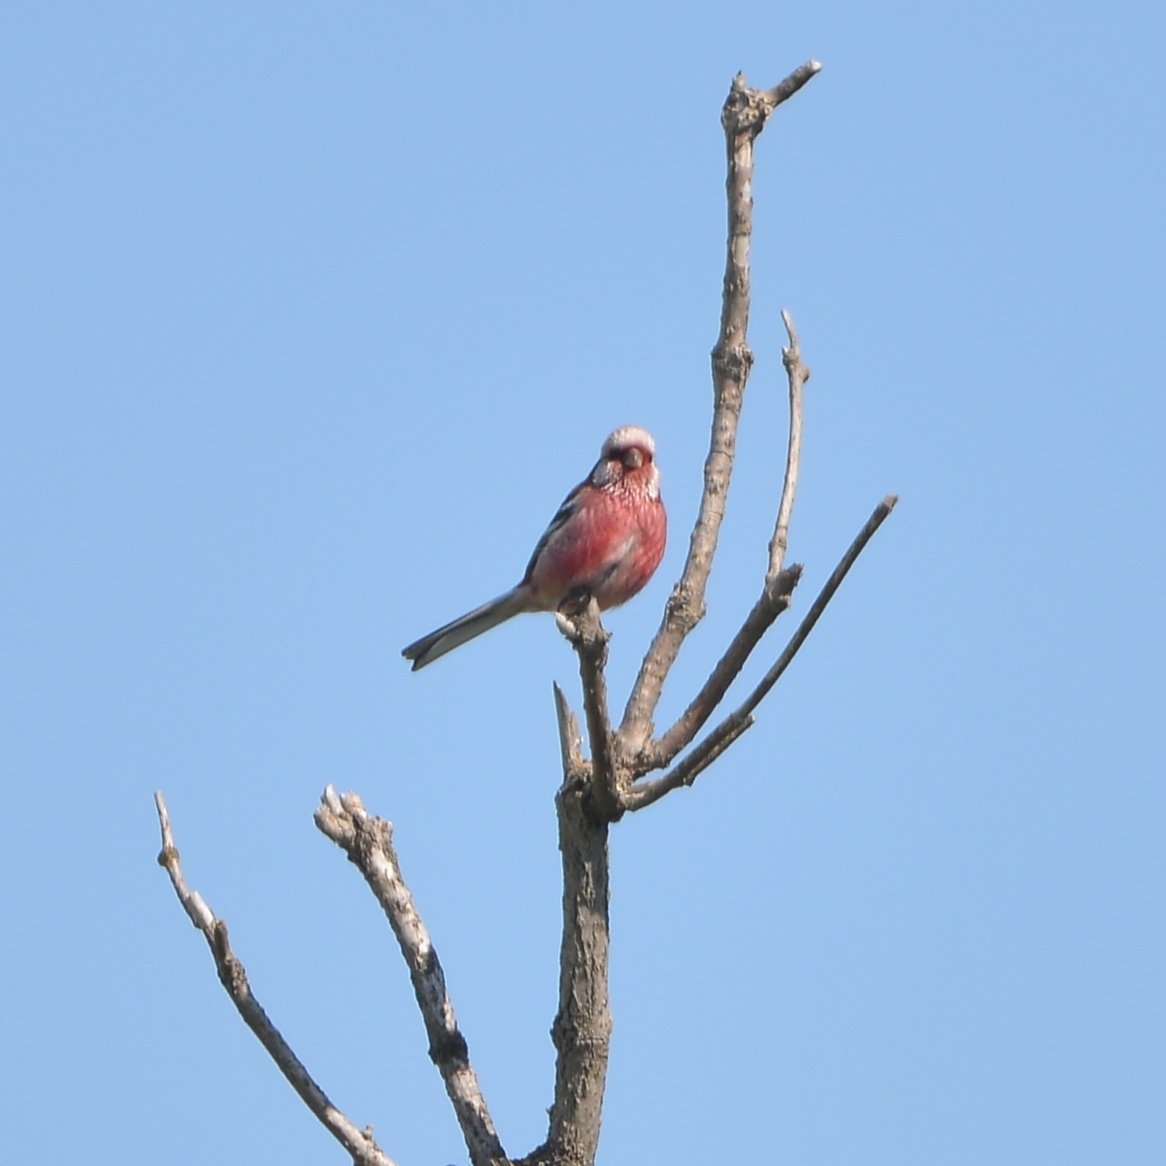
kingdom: Animalia
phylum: Chordata
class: Aves
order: Passeriformes
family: Fringillidae
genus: Carpodacus
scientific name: Carpodacus sibiricus
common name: Long-tailed rosefinch
